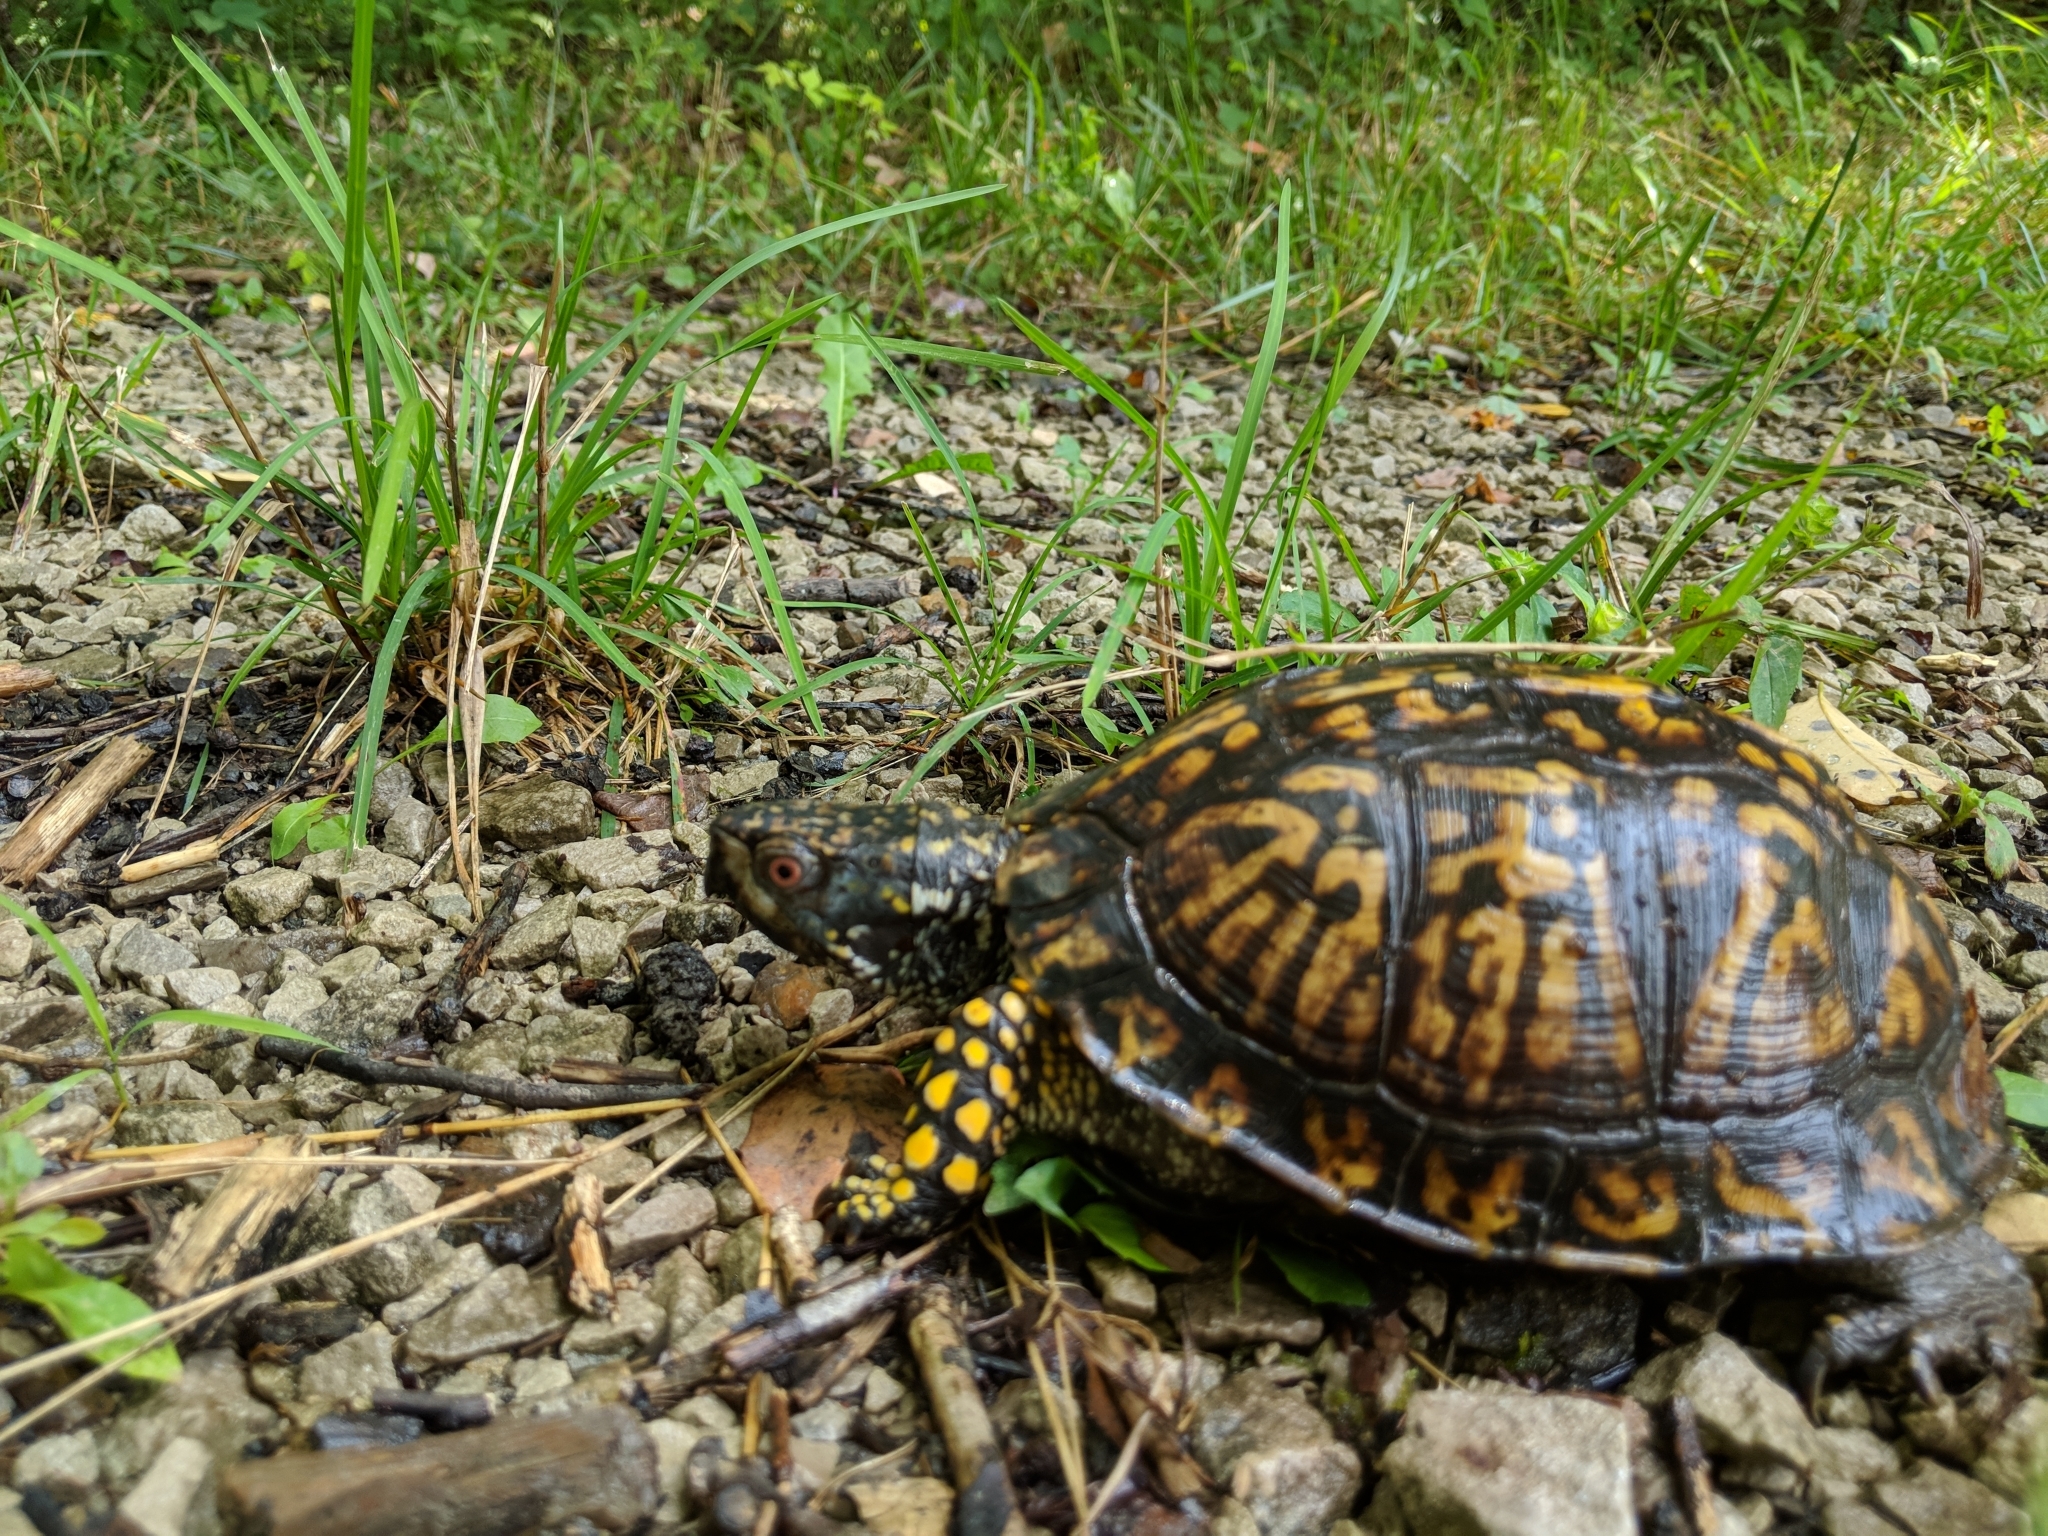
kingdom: Animalia
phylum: Chordata
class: Testudines
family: Emydidae
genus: Terrapene
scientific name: Terrapene carolina
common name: Common box turtle
